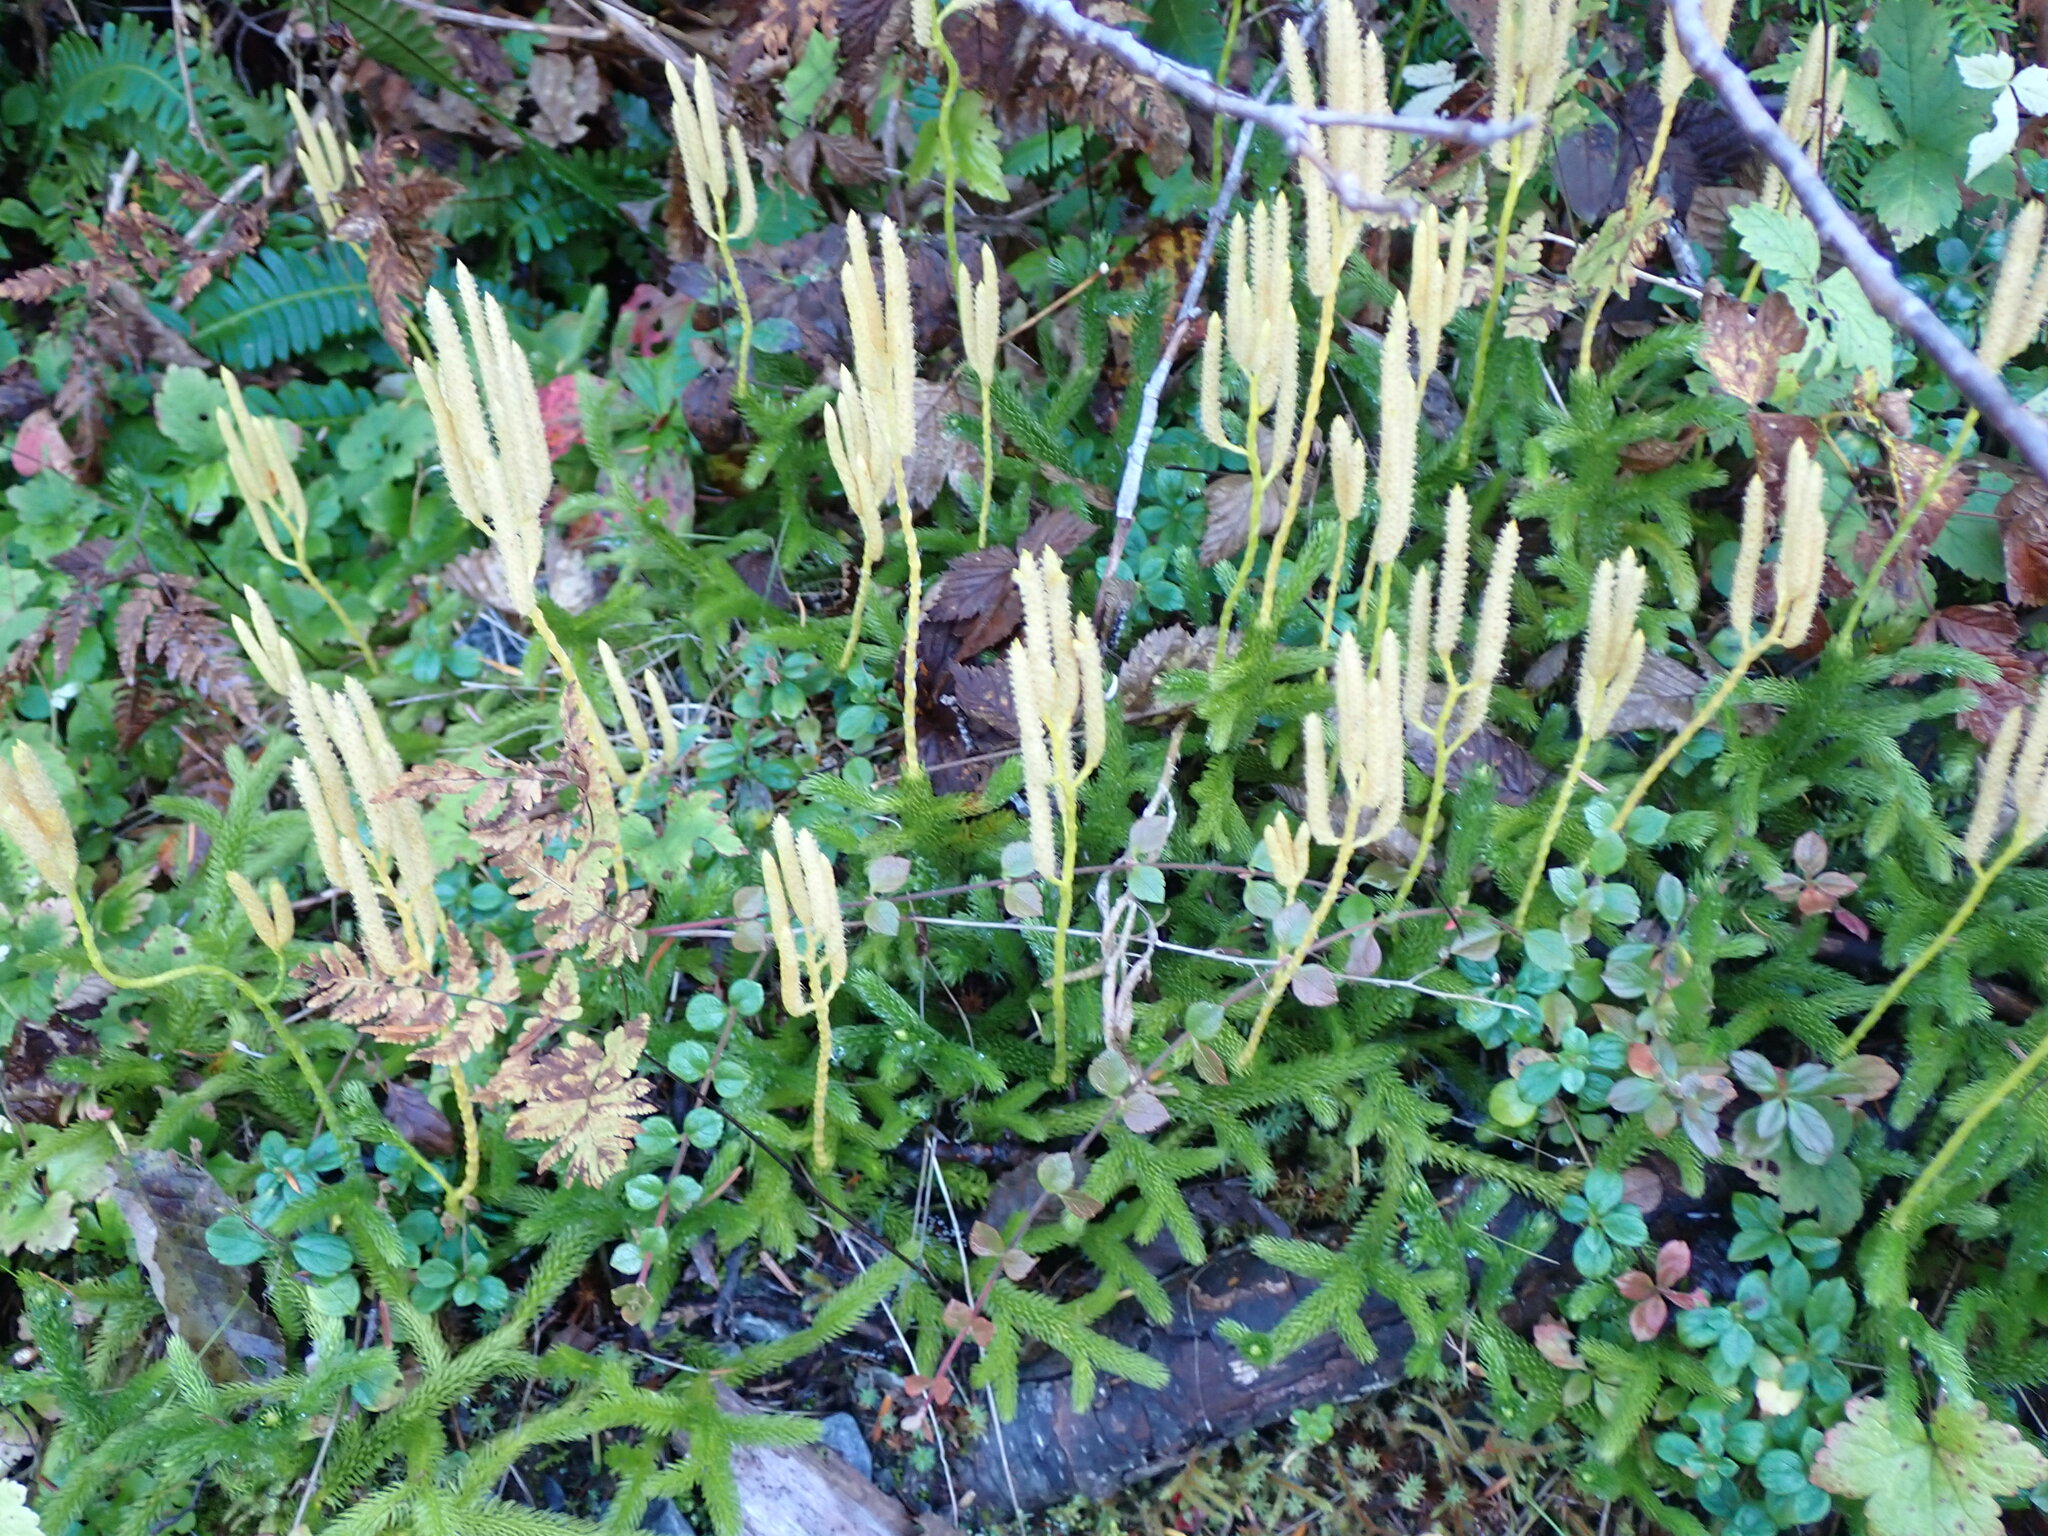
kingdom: Plantae
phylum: Tracheophyta
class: Lycopodiopsida
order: Lycopodiales
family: Lycopodiaceae
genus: Lycopodium
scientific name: Lycopodium clavatum
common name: Stag's-horn clubmoss
